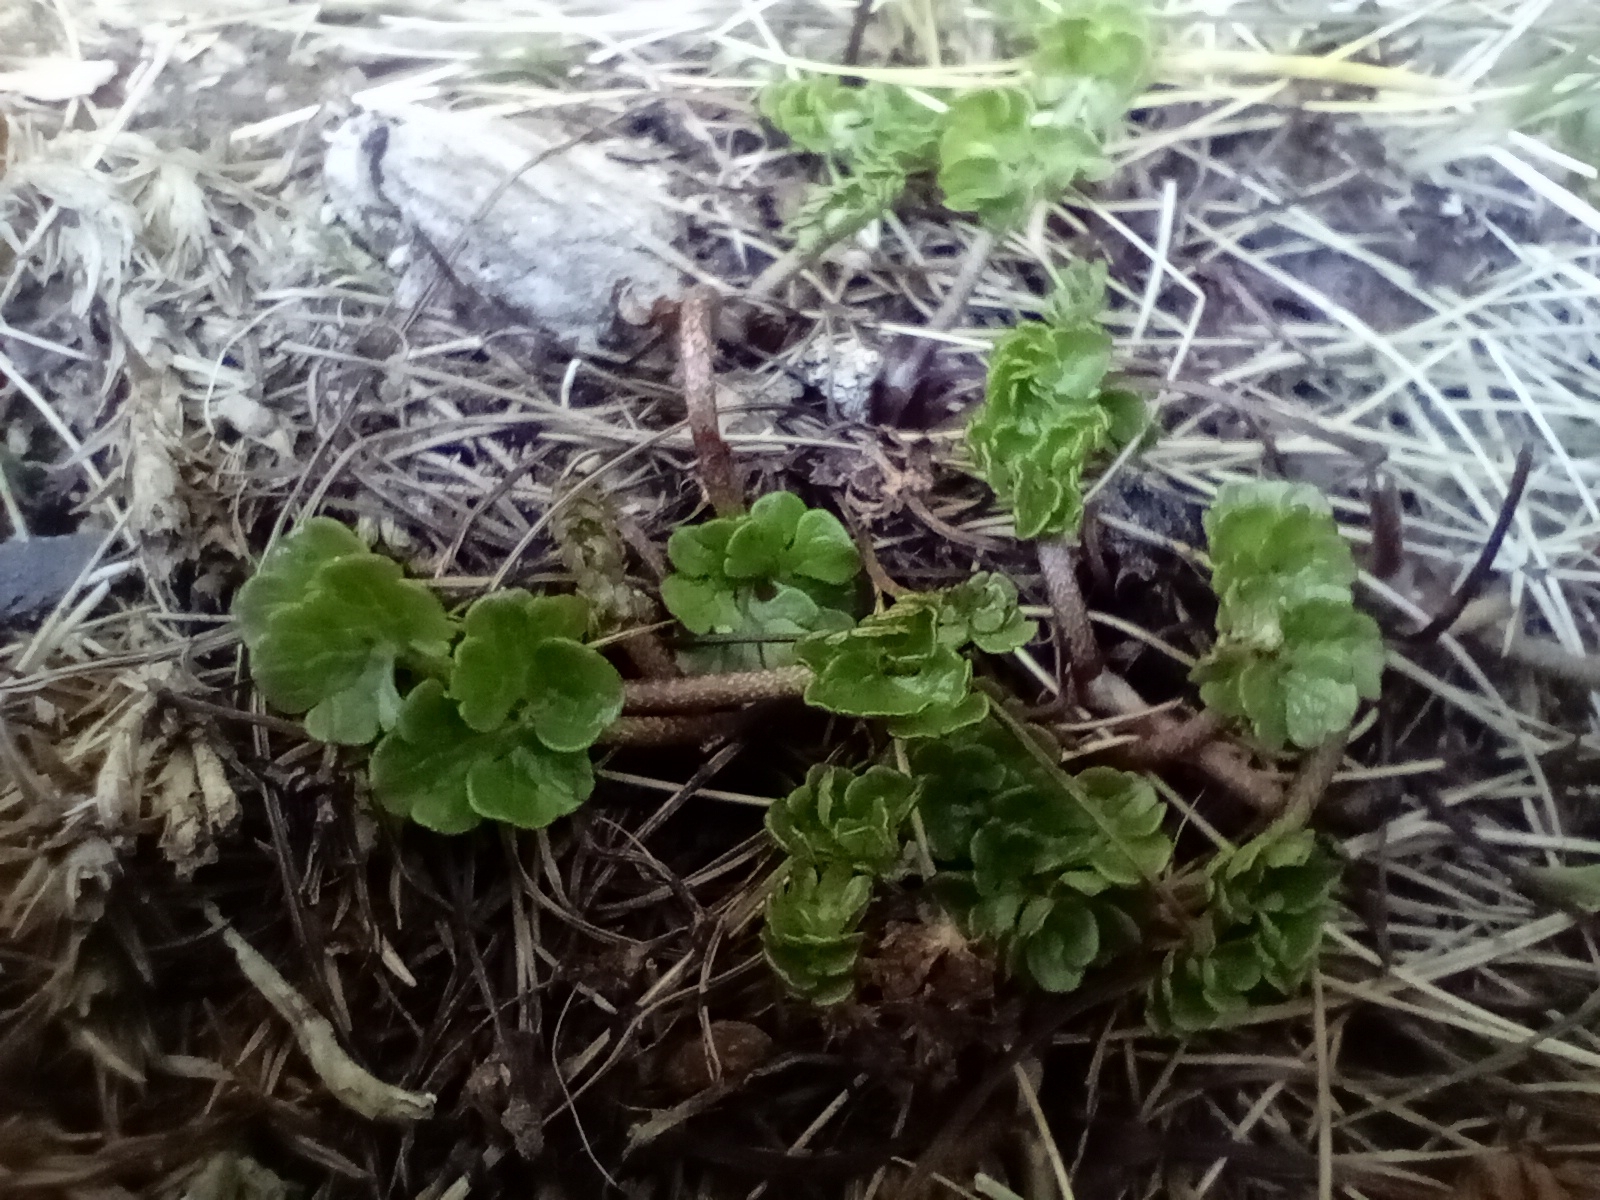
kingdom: Plantae
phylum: Tracheophyta
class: Magnoliopsida
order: Ranunculales
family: Ranunculaceae
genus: Ranunculus
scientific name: Ranunculus enysii
